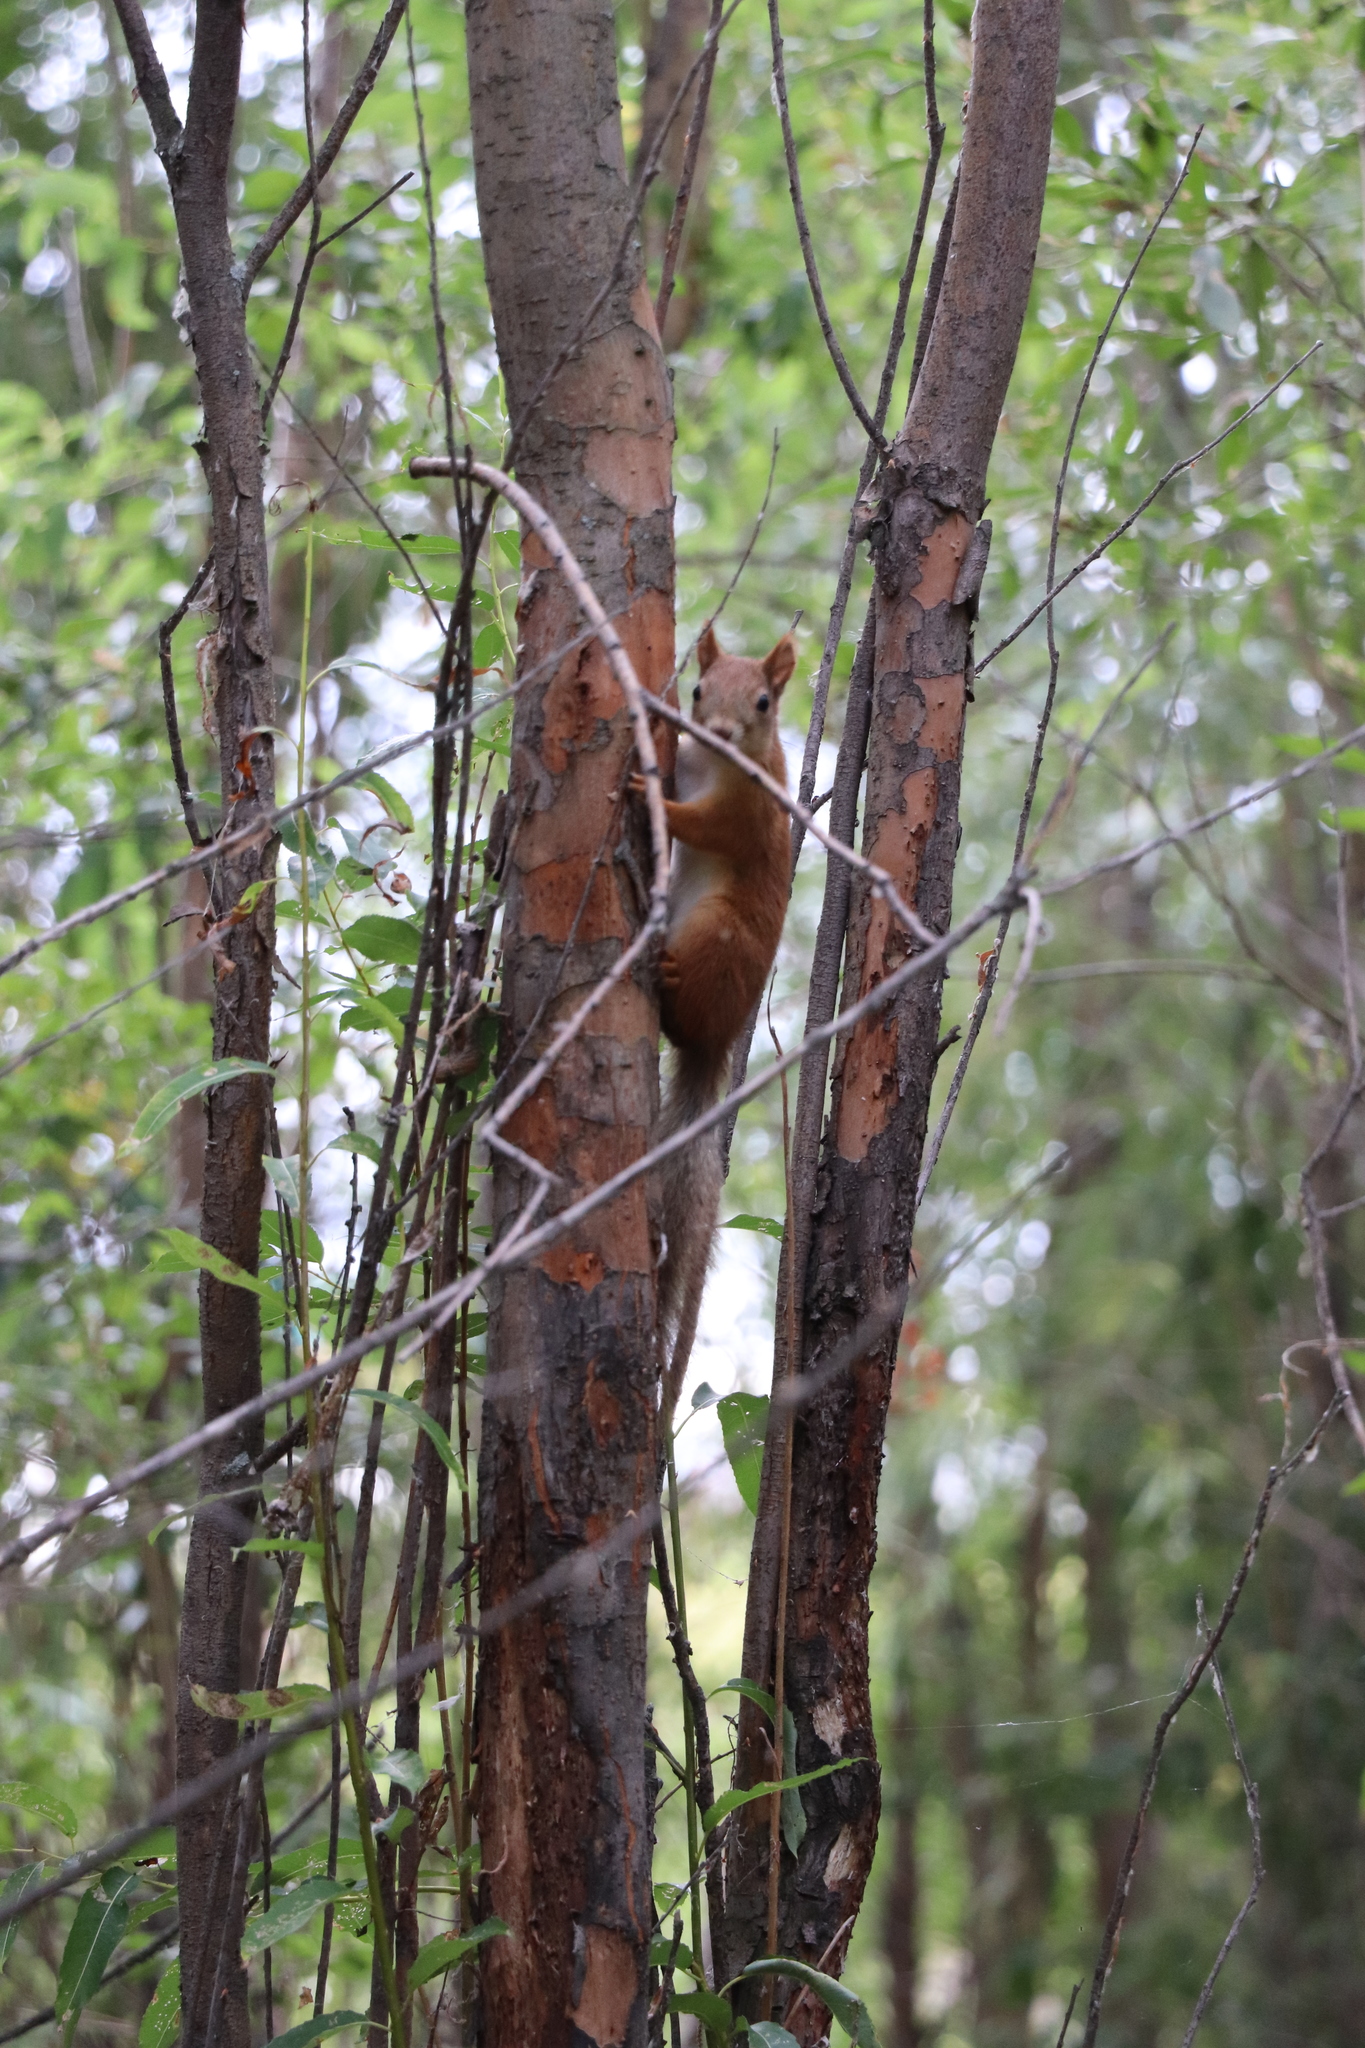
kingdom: Animalia
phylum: Chordata
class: Mammalia
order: Rodentia
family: Sciuridae
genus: Sciurus
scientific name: Sciurus vulgaris
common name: Eurasian red squirrel
